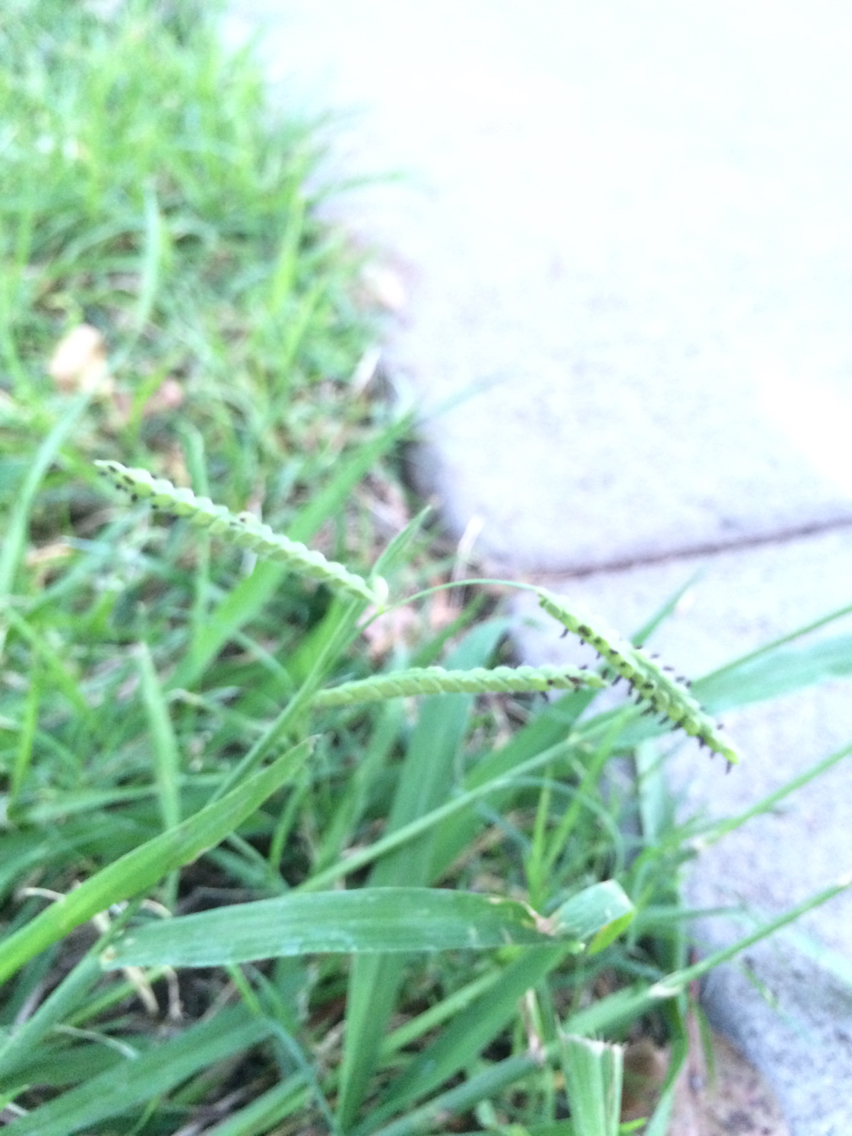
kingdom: Plantae
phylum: Tracheophyta
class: Liliopsida
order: Poales
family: Poaceae
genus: Paspalum
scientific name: Paspalum dilatatum
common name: Dallisgrass
